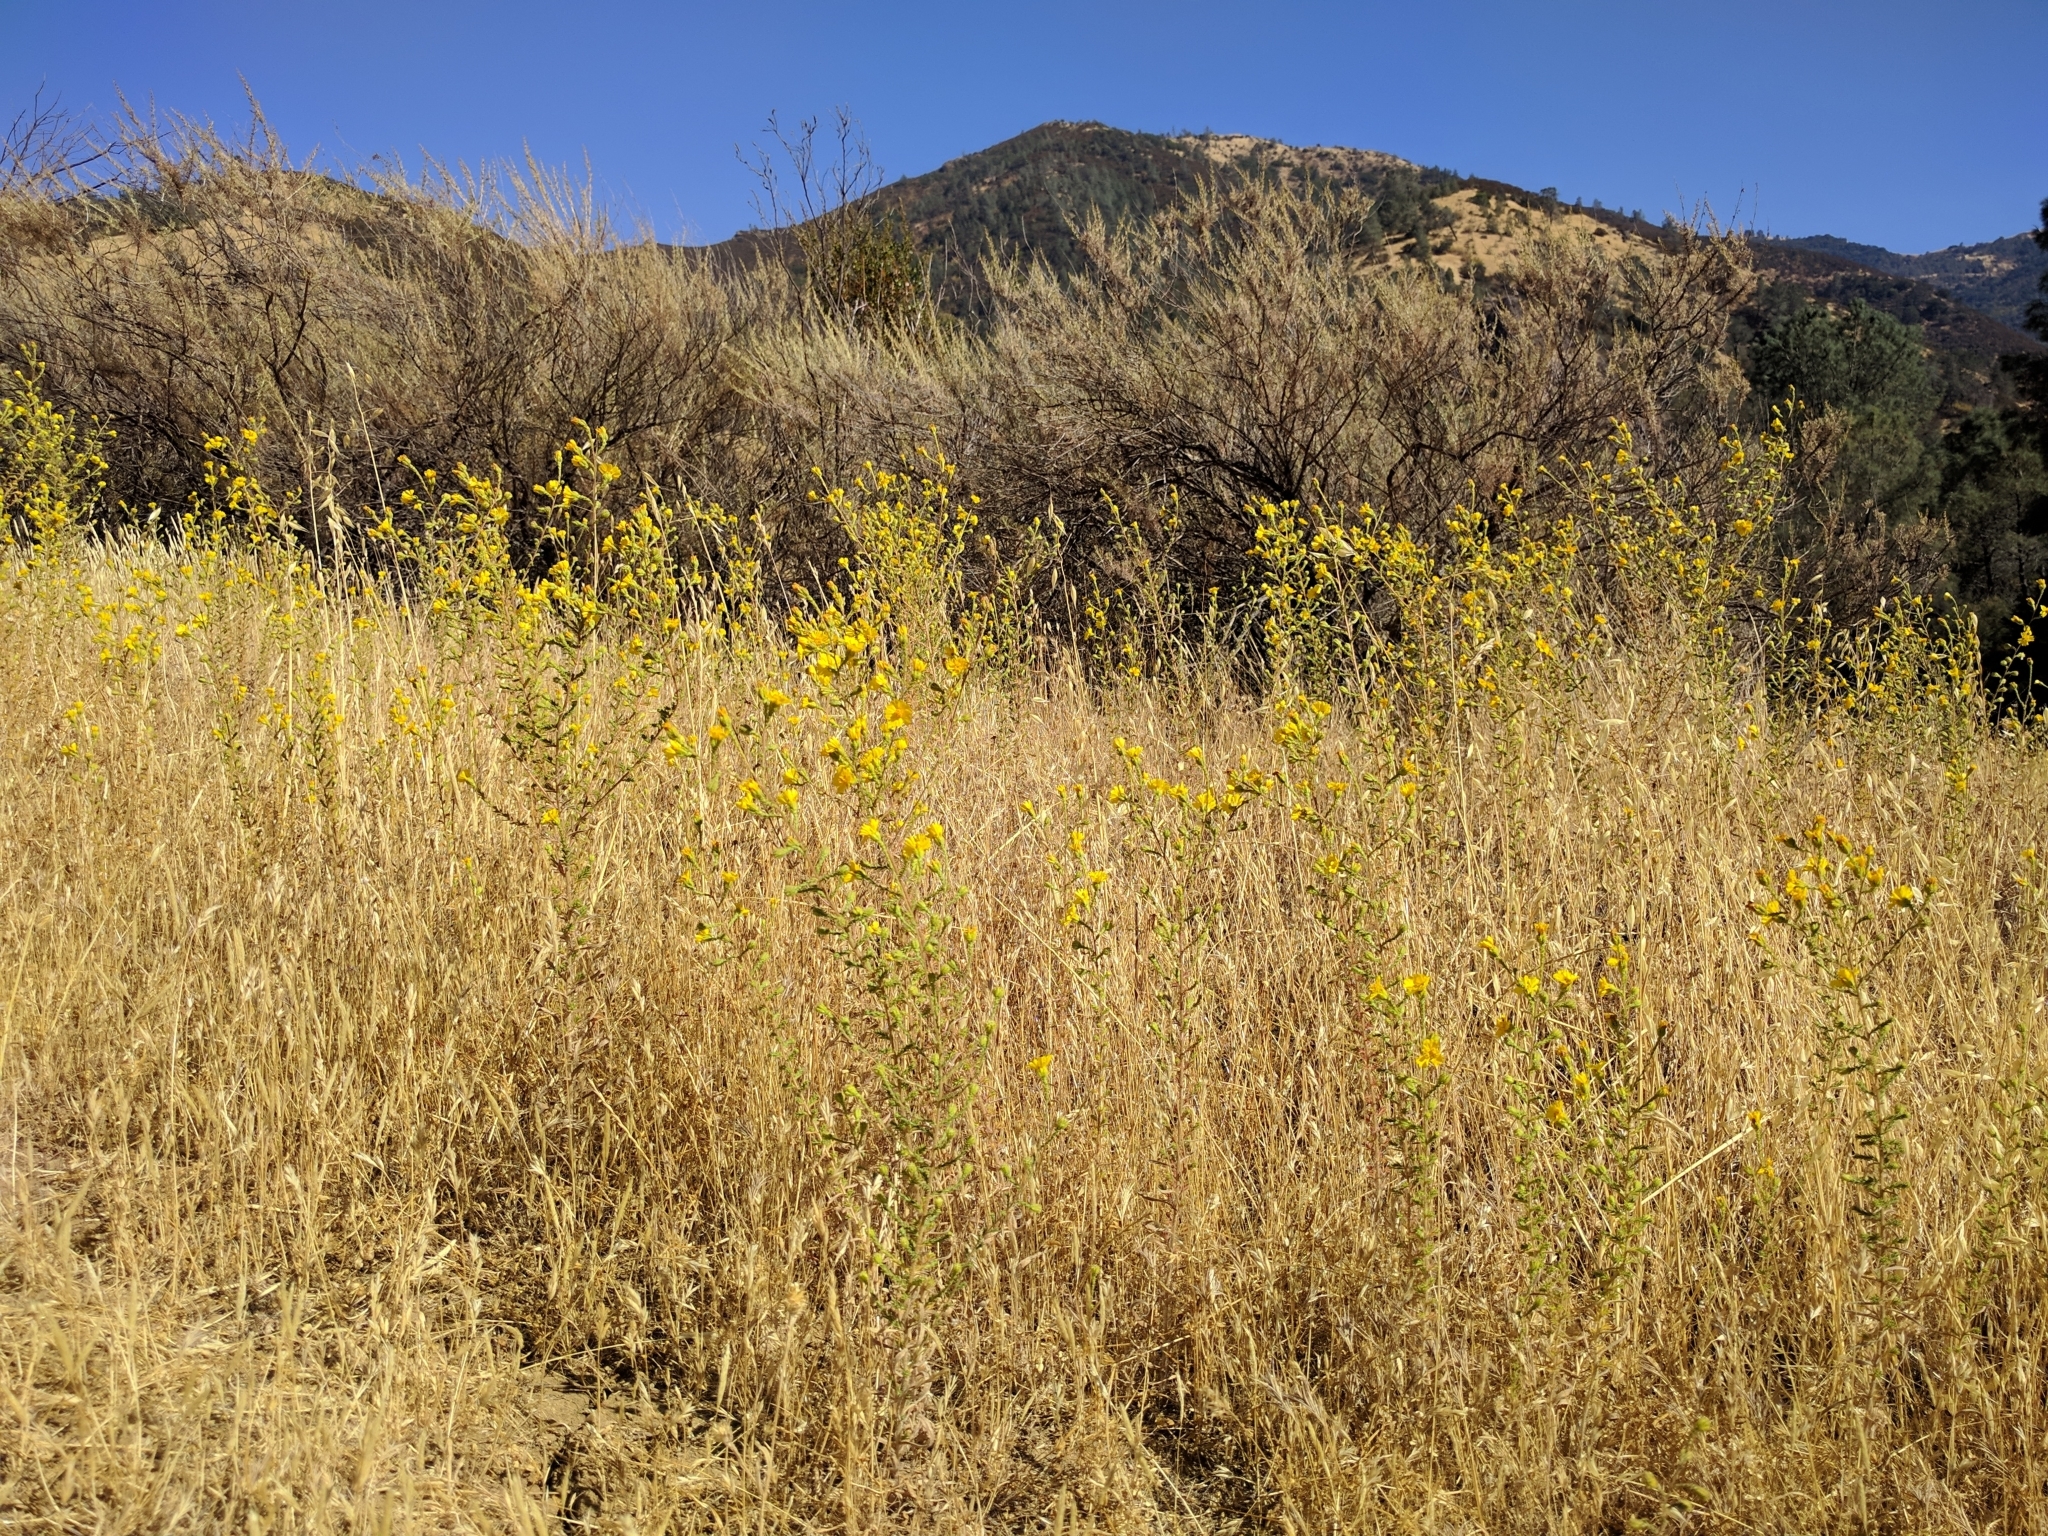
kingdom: Plantae
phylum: Tracheophyta
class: Magnoliopsida
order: Asterales
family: Asteraceae
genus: Holocarpha
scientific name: Holocarpha heermannii
